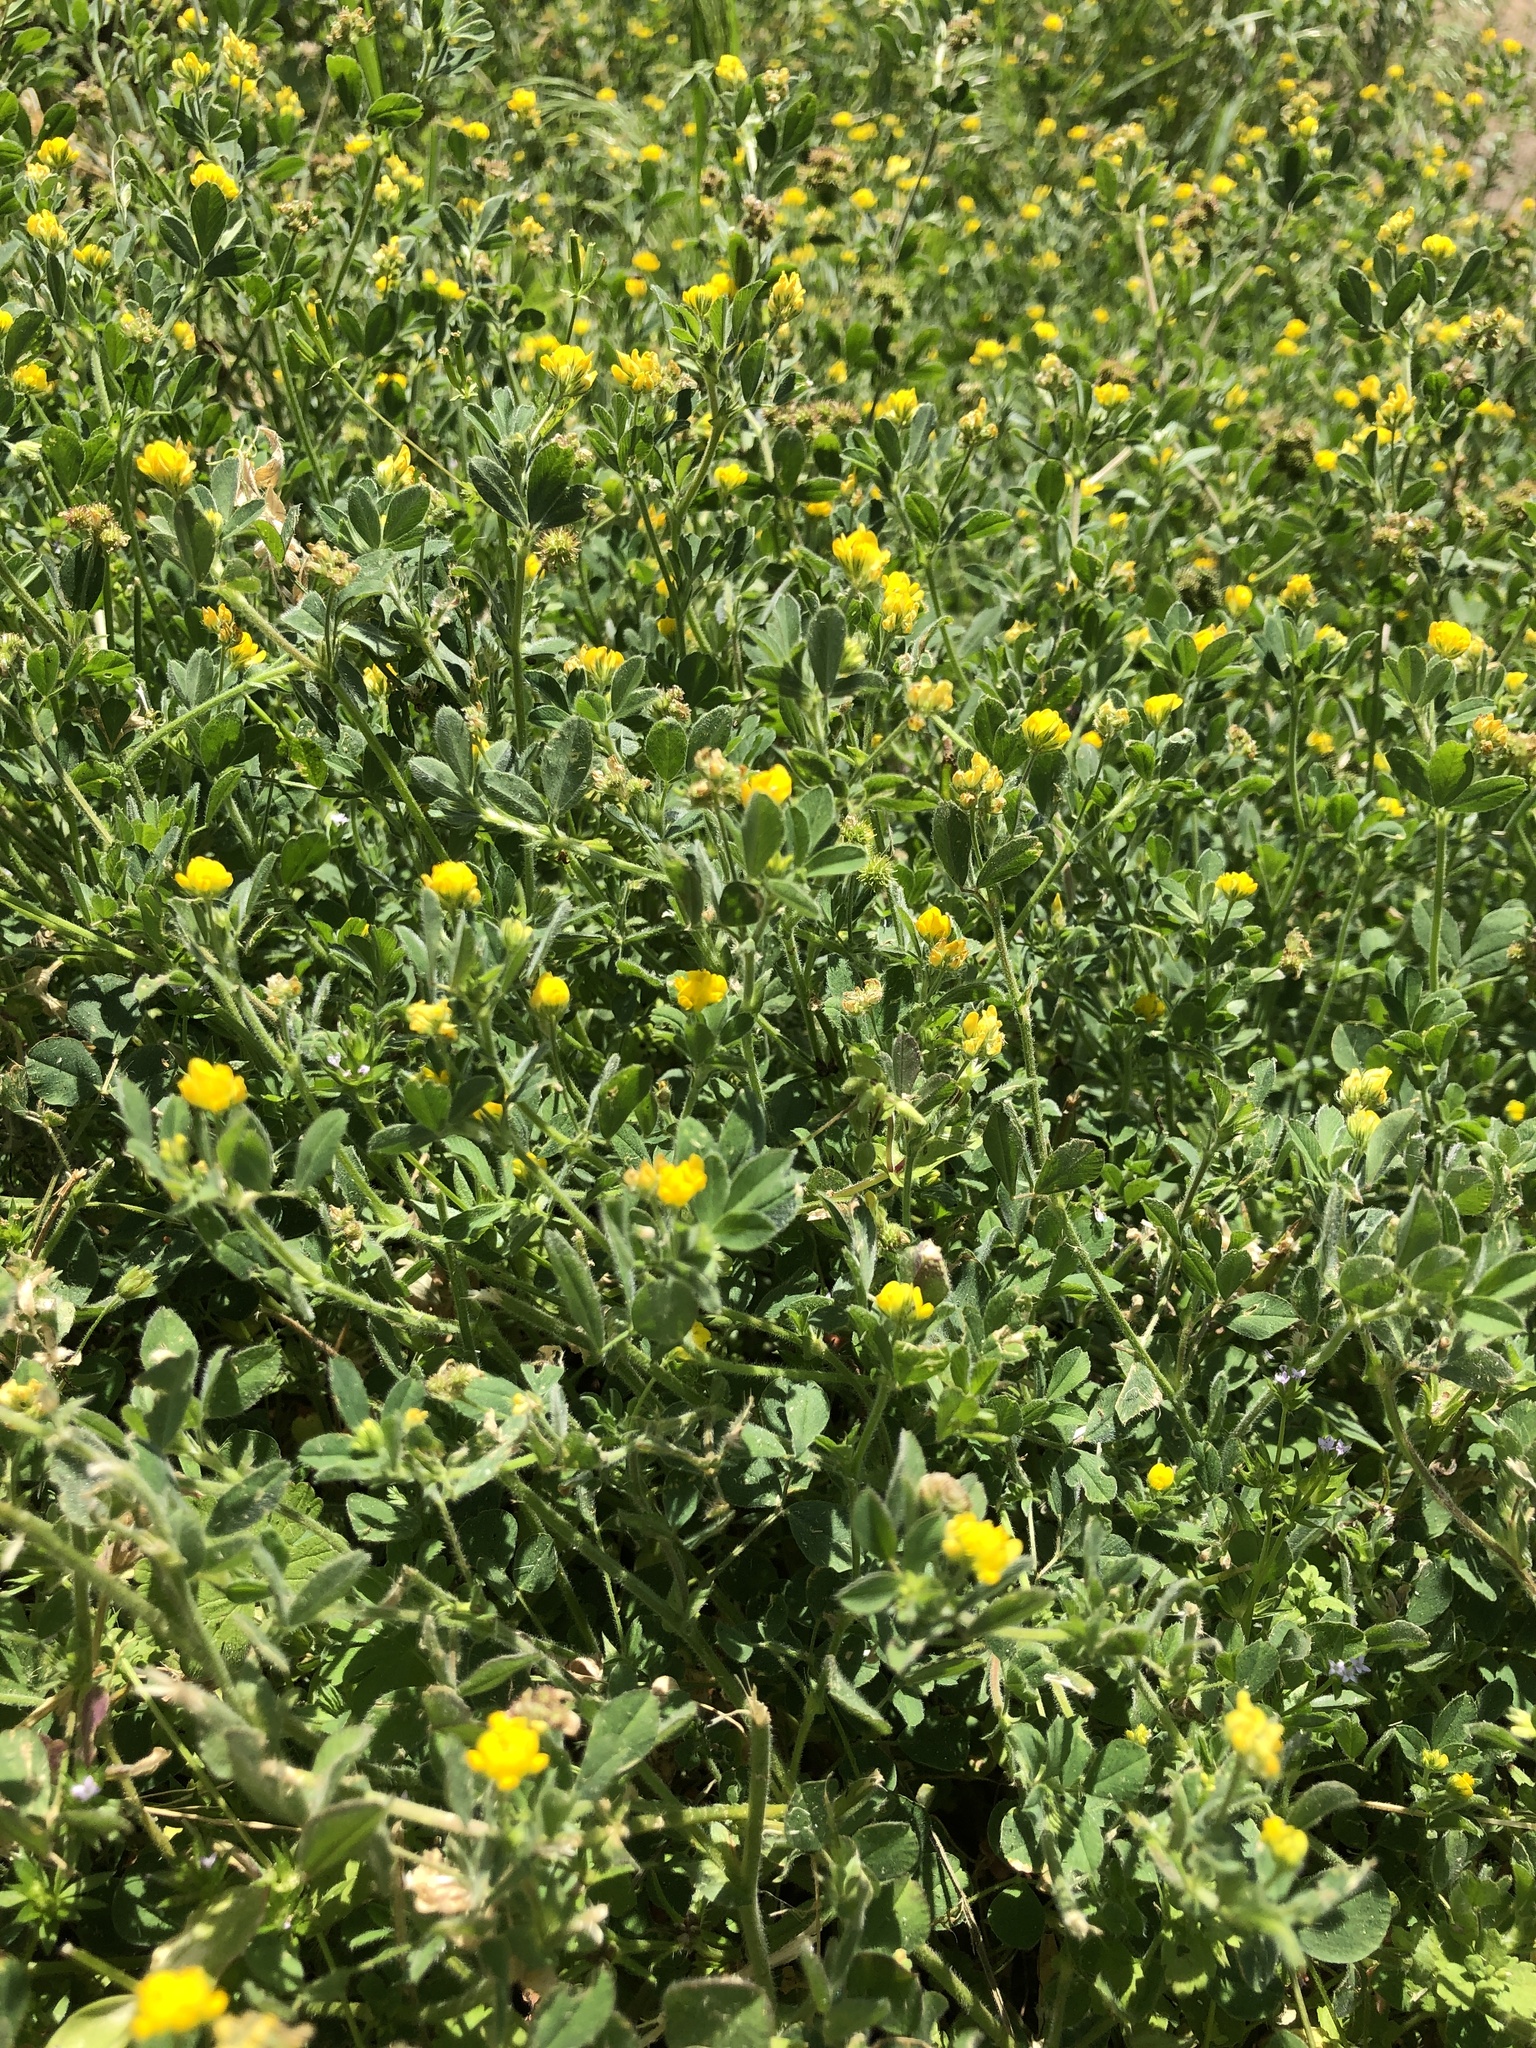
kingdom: Plantae
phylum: Tracheophyta
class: Magnoliopsida
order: Fabales
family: Fabaceae
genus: Medicago
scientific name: Medicago minima
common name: Little bur-clover
